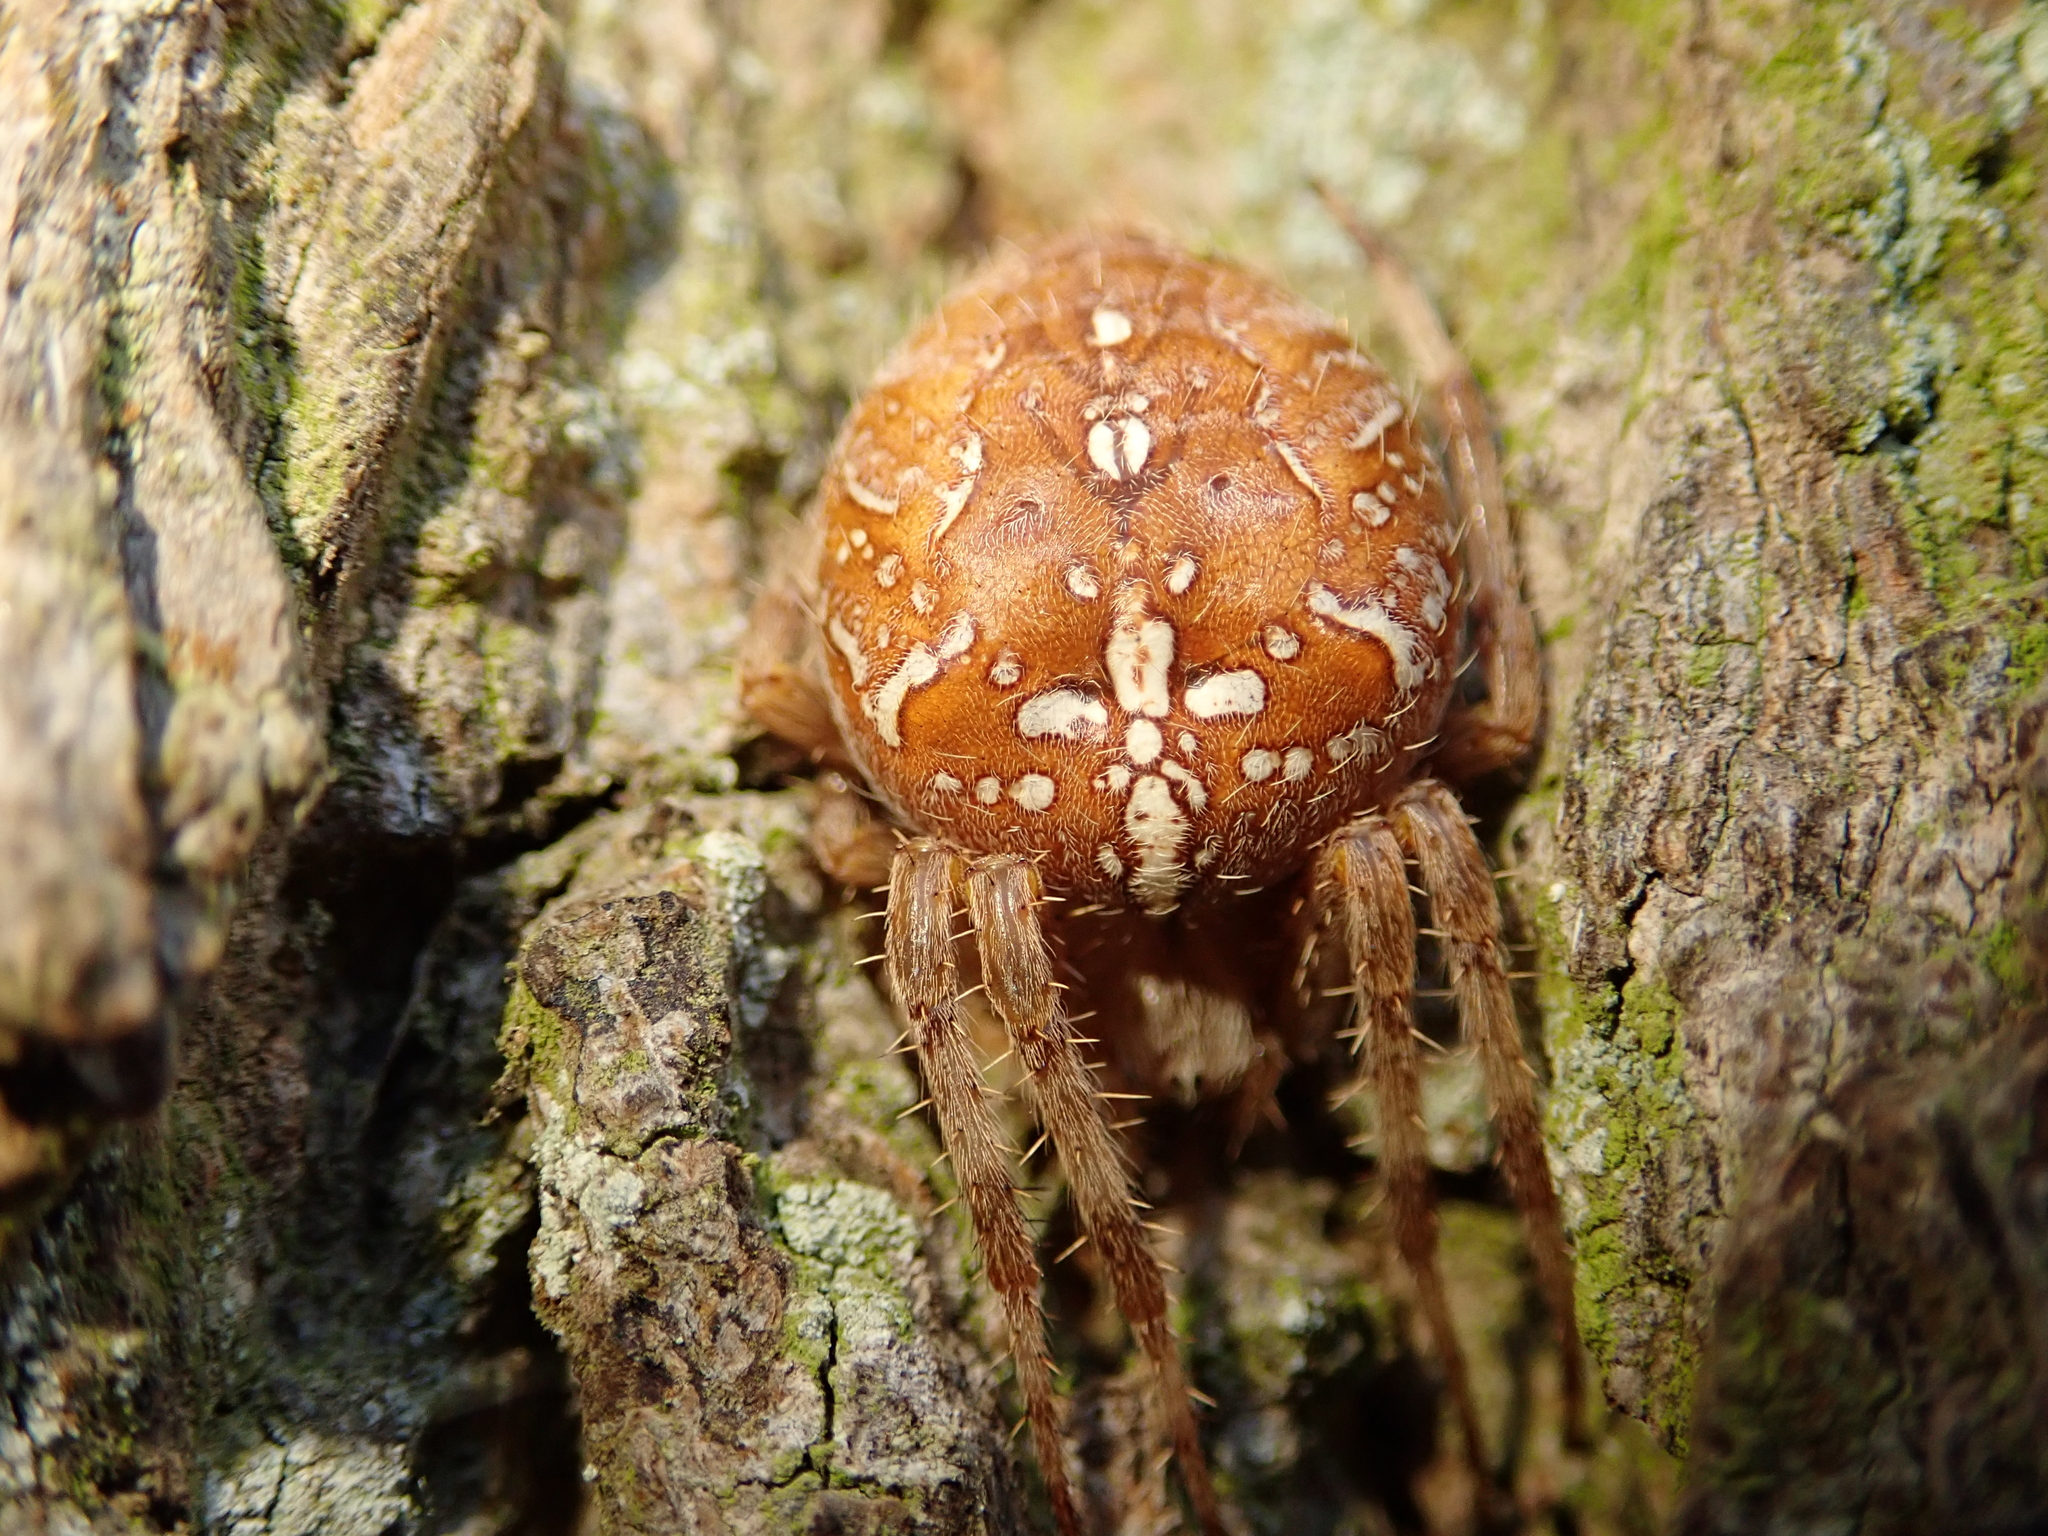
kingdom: Animalia
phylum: Arthropoda
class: Arachnida
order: Araneae
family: Araneidae
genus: Araneus
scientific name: Araneus diadematus
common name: Cross orbweaver
